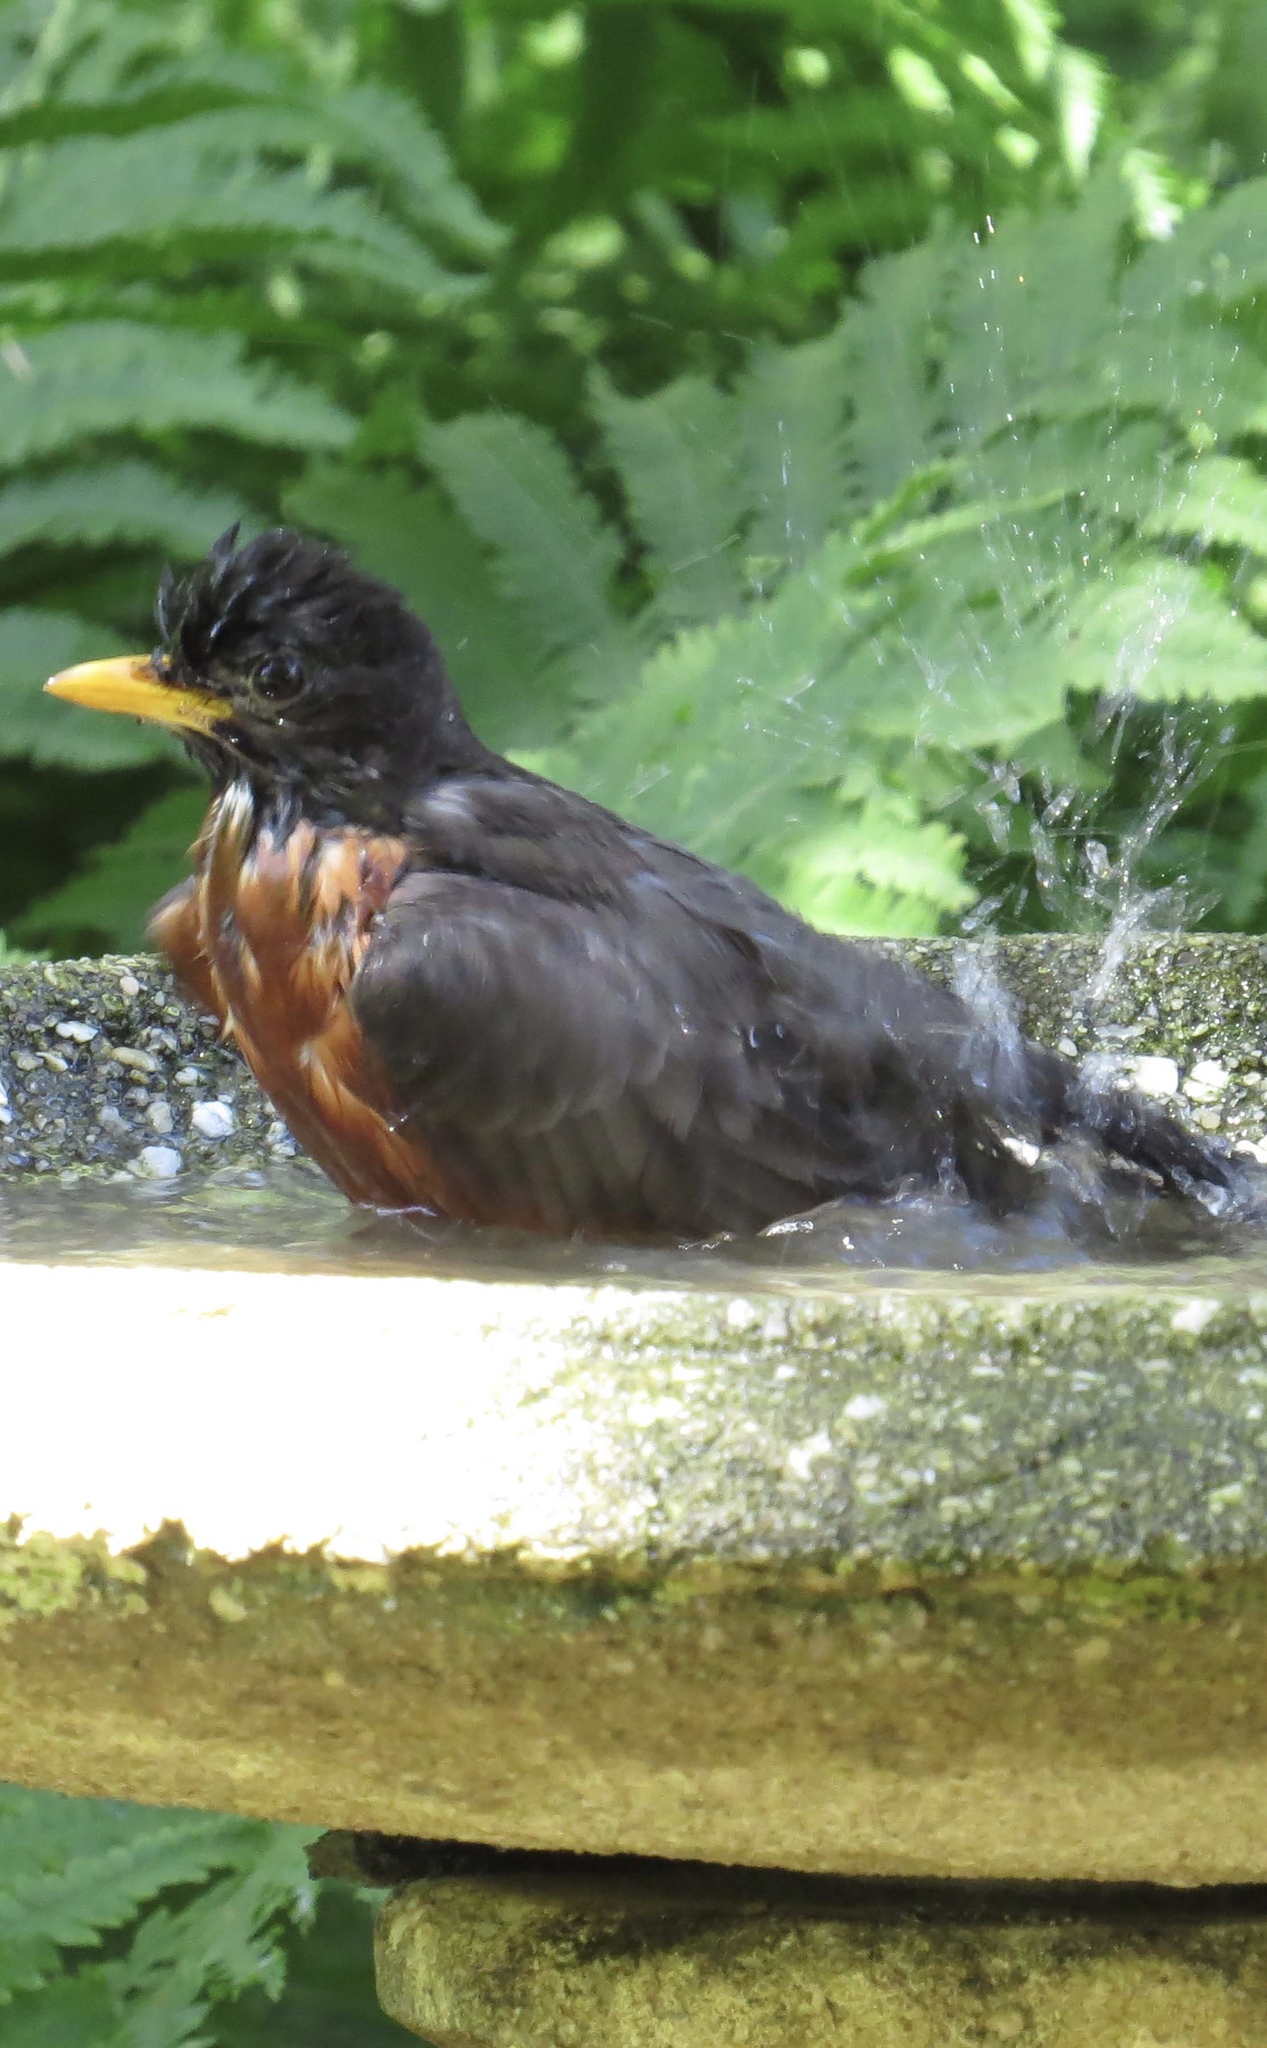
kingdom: Animalia
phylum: Chordata
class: Aves
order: Passeriformes
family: Turdidae
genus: Turdus
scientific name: Turdus migratorius
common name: American robin
